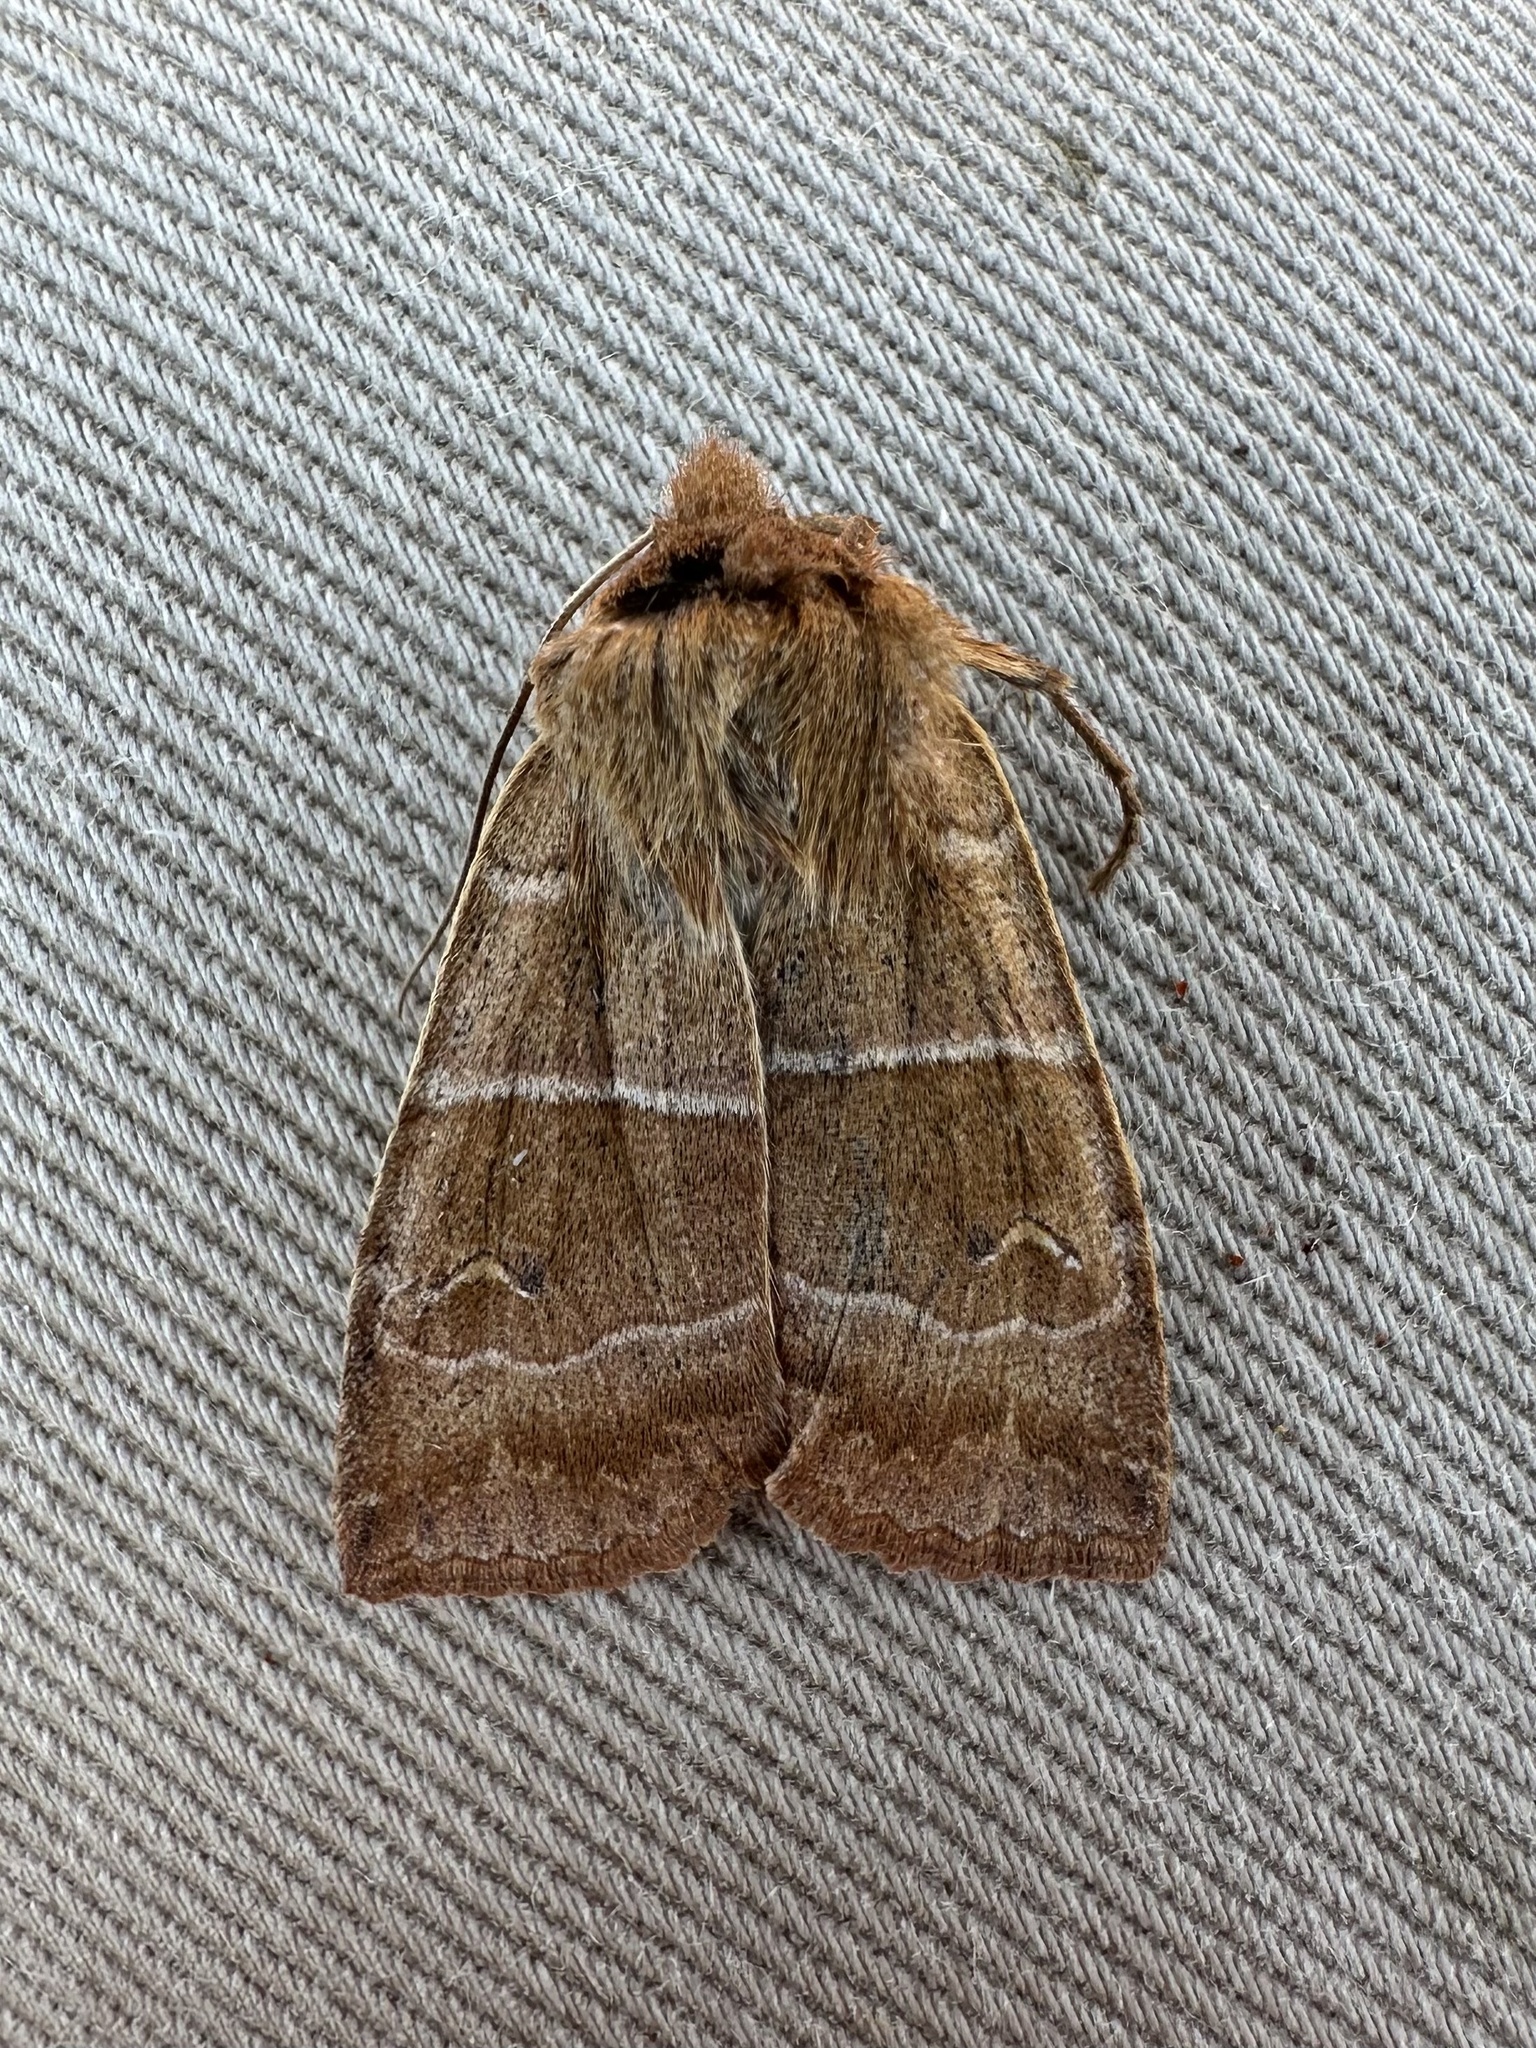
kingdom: Animalia
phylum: Arthropoda
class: Insecta
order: Lepidoptera
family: Noctuidae
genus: Eupsilia
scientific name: Eupsilia morrisoni
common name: Morrison's sallow
